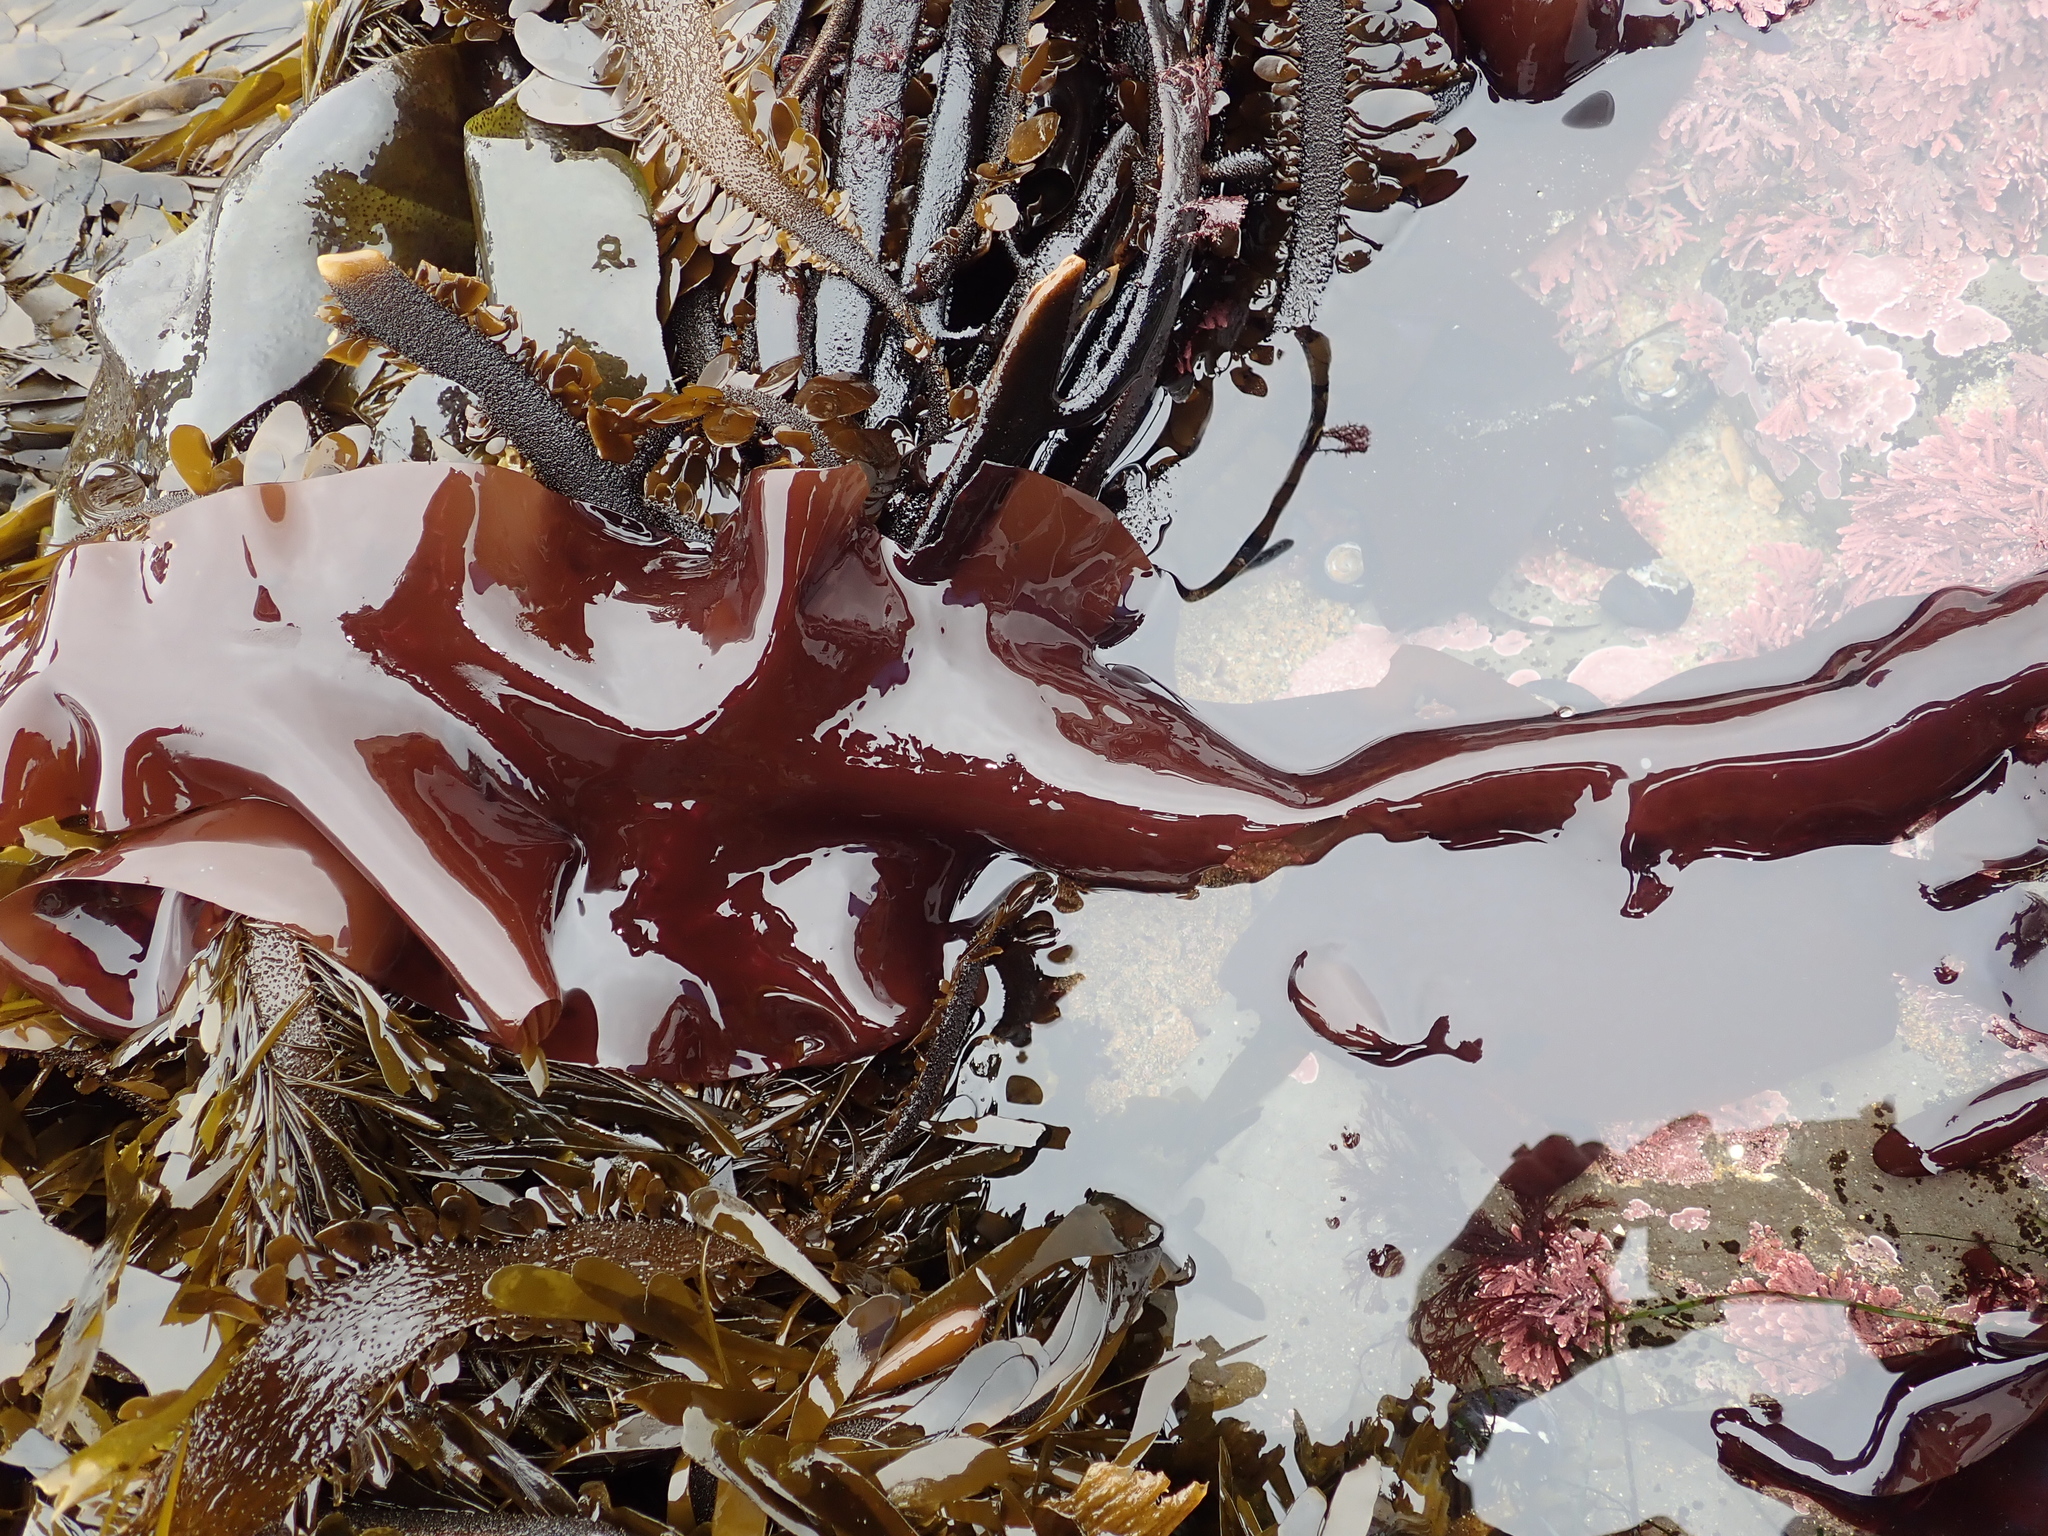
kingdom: Plantae
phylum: Rhodophyta
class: Florideophyceae
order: Gigartinales
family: Gigartinaceae
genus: Mazzaella
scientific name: Mazzaella splendens
